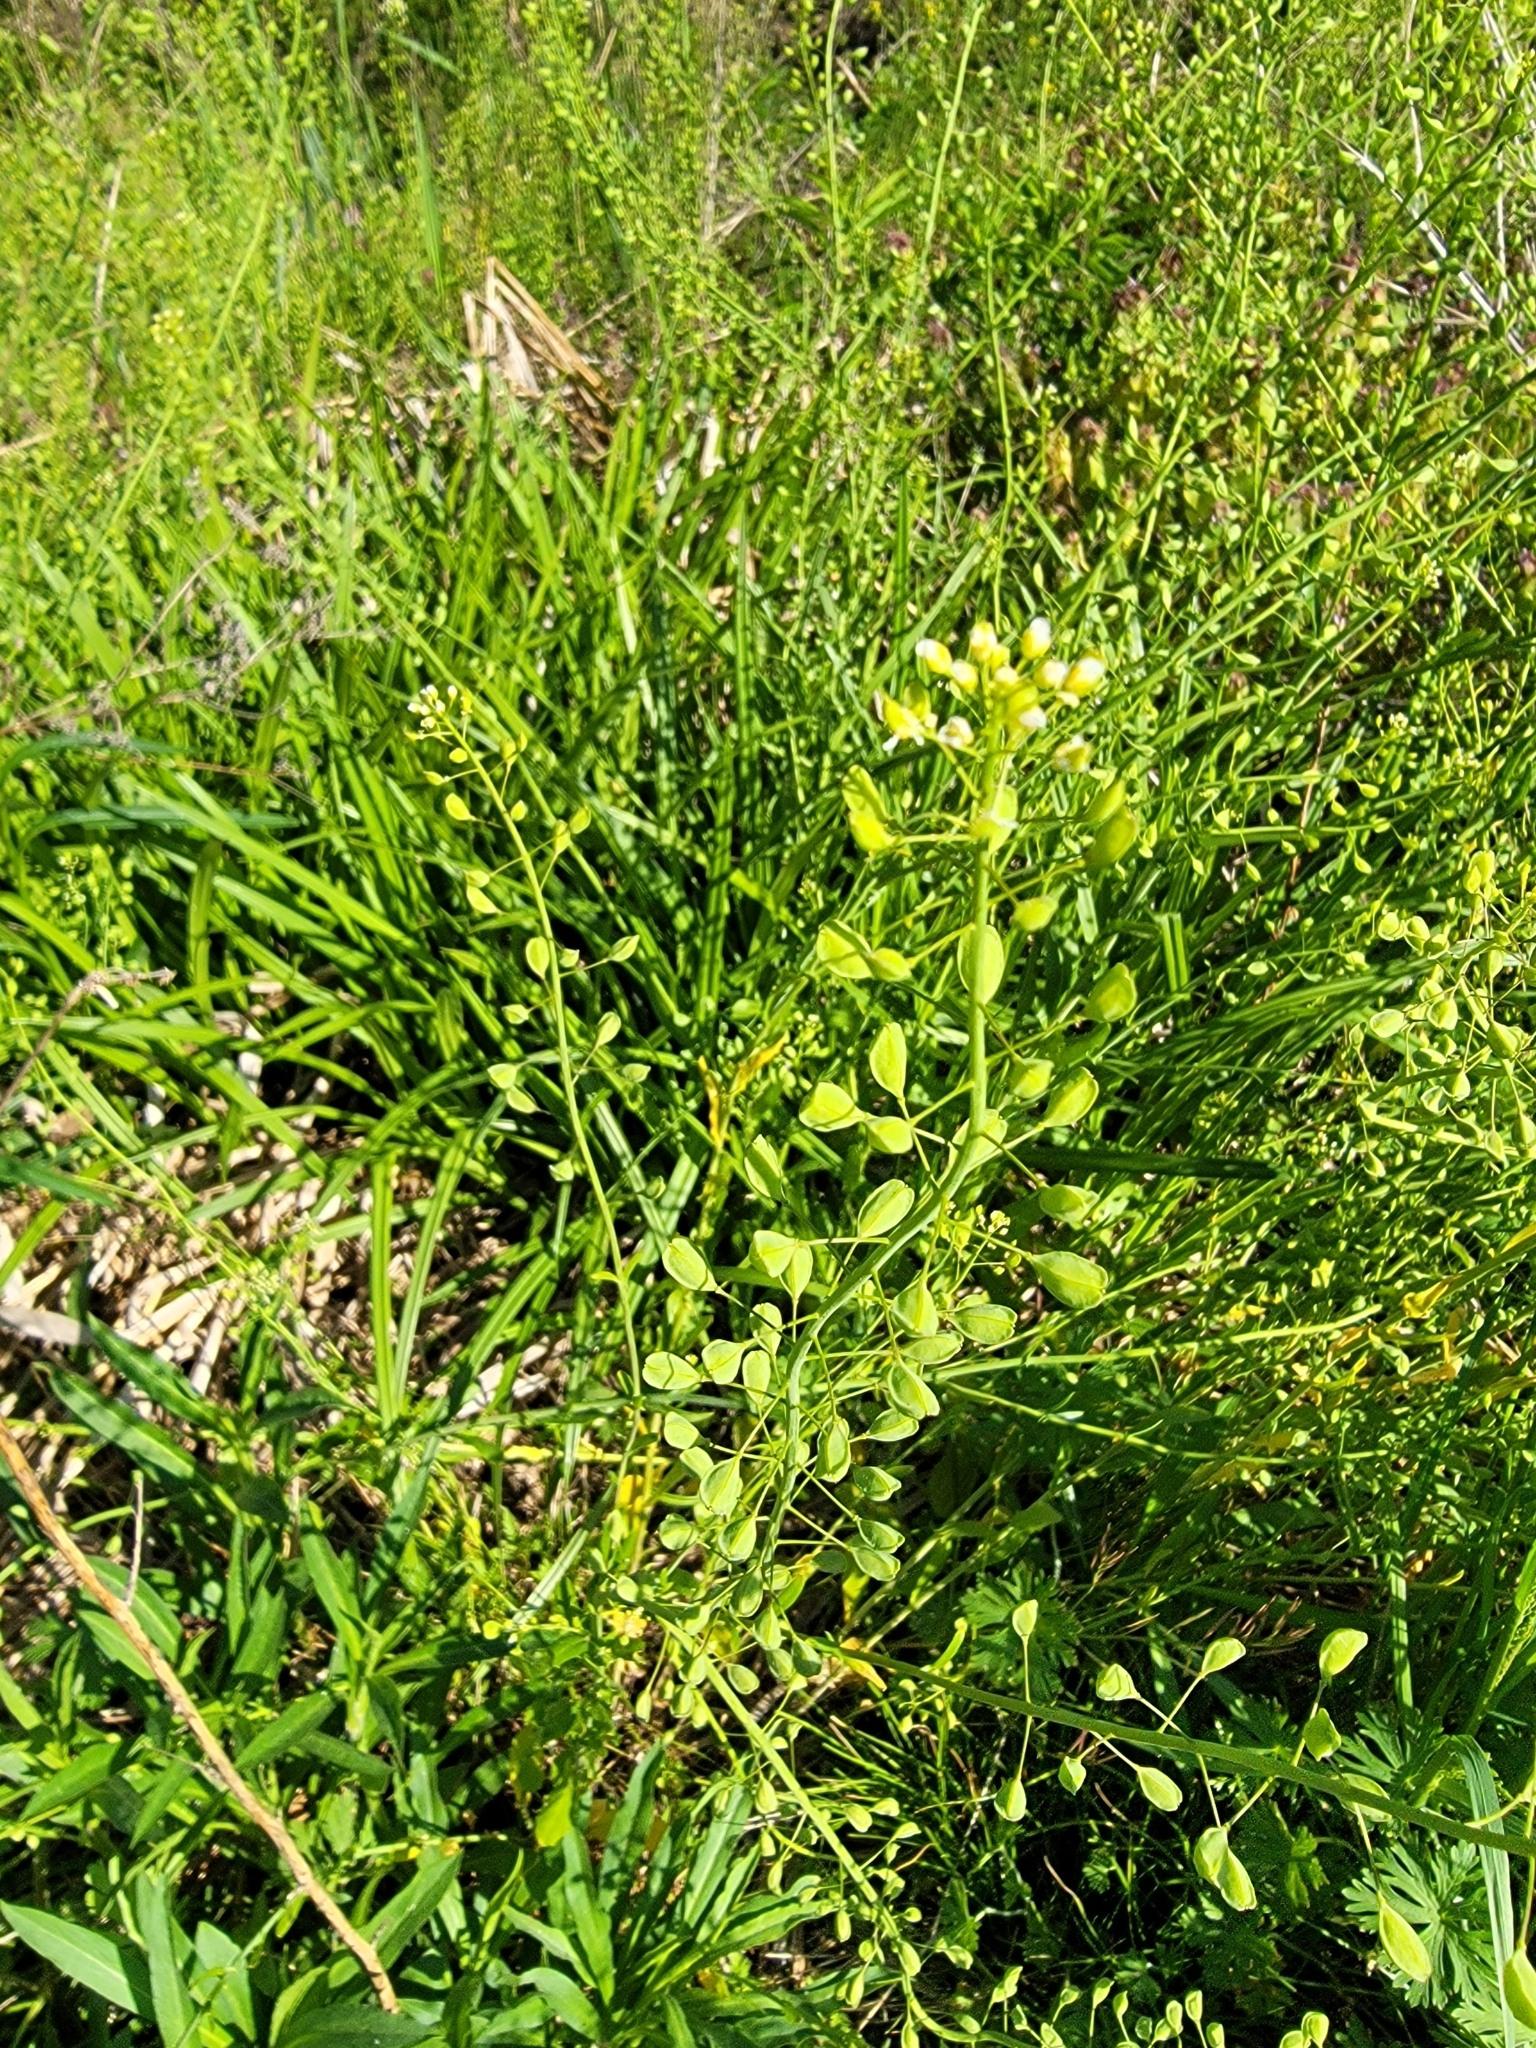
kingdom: Plantae
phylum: Tracheophyta
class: Magnoliopsida
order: Brassicales
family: Brassicaceae
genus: Mummenhoffia
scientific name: Mummenhoffia alliacea
